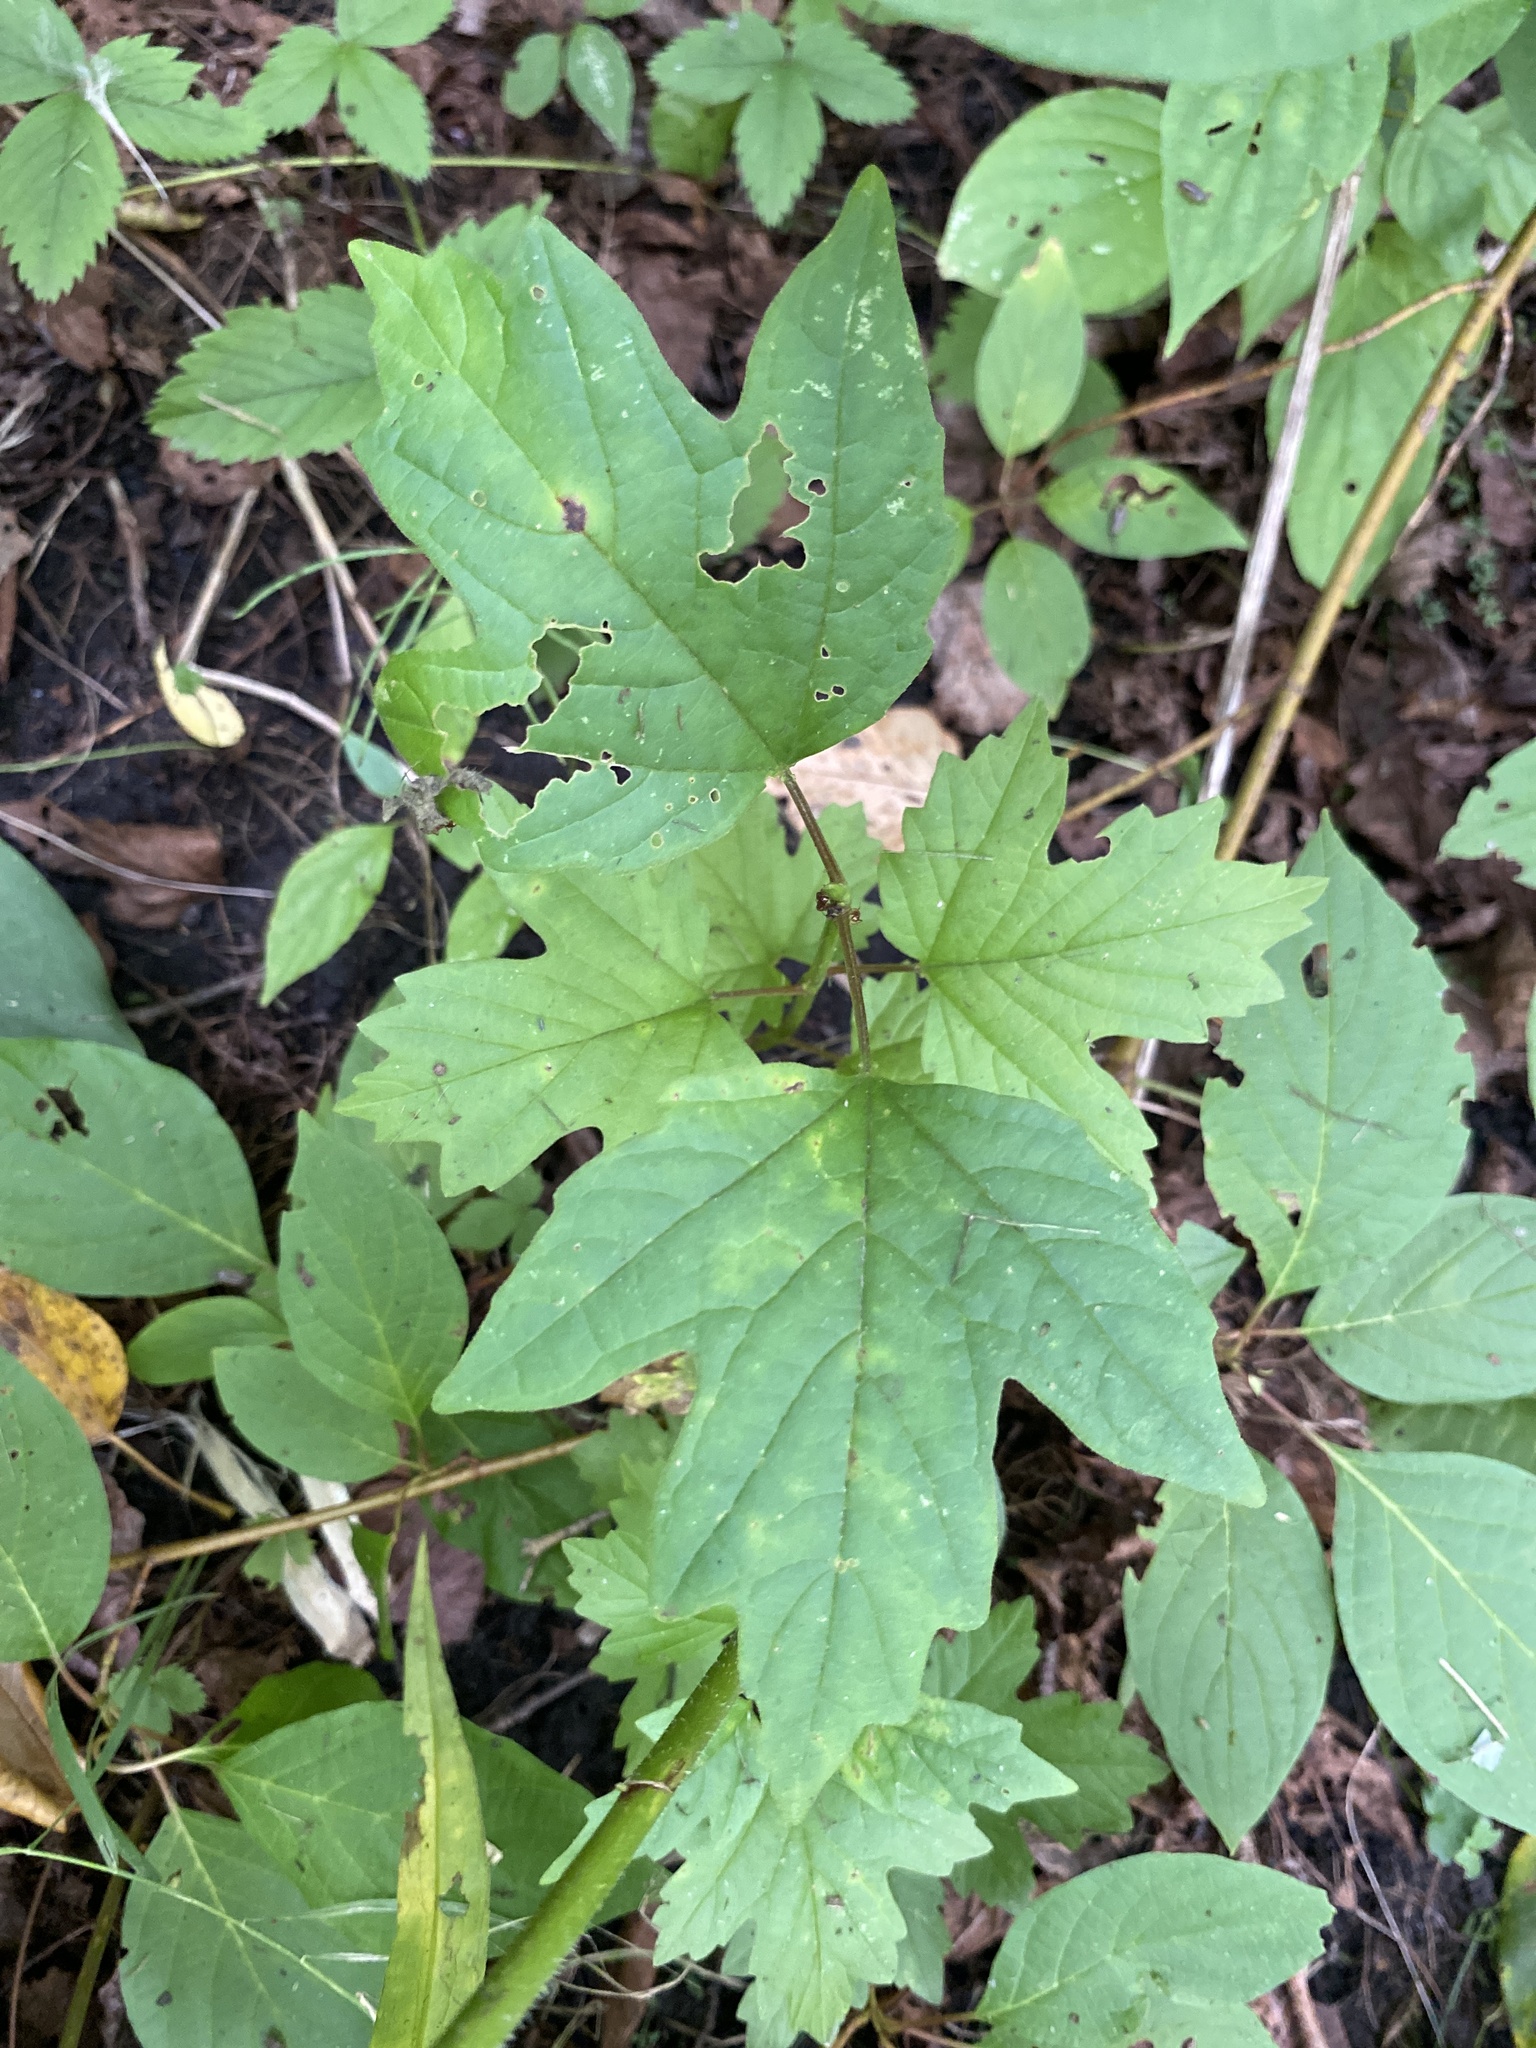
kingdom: Plantae
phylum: Tracheophyta
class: Magnoliopsida
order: Dipsacales
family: Viburnaceae
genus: Viburnum
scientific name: Viburnum opulus
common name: Guelder-rose
